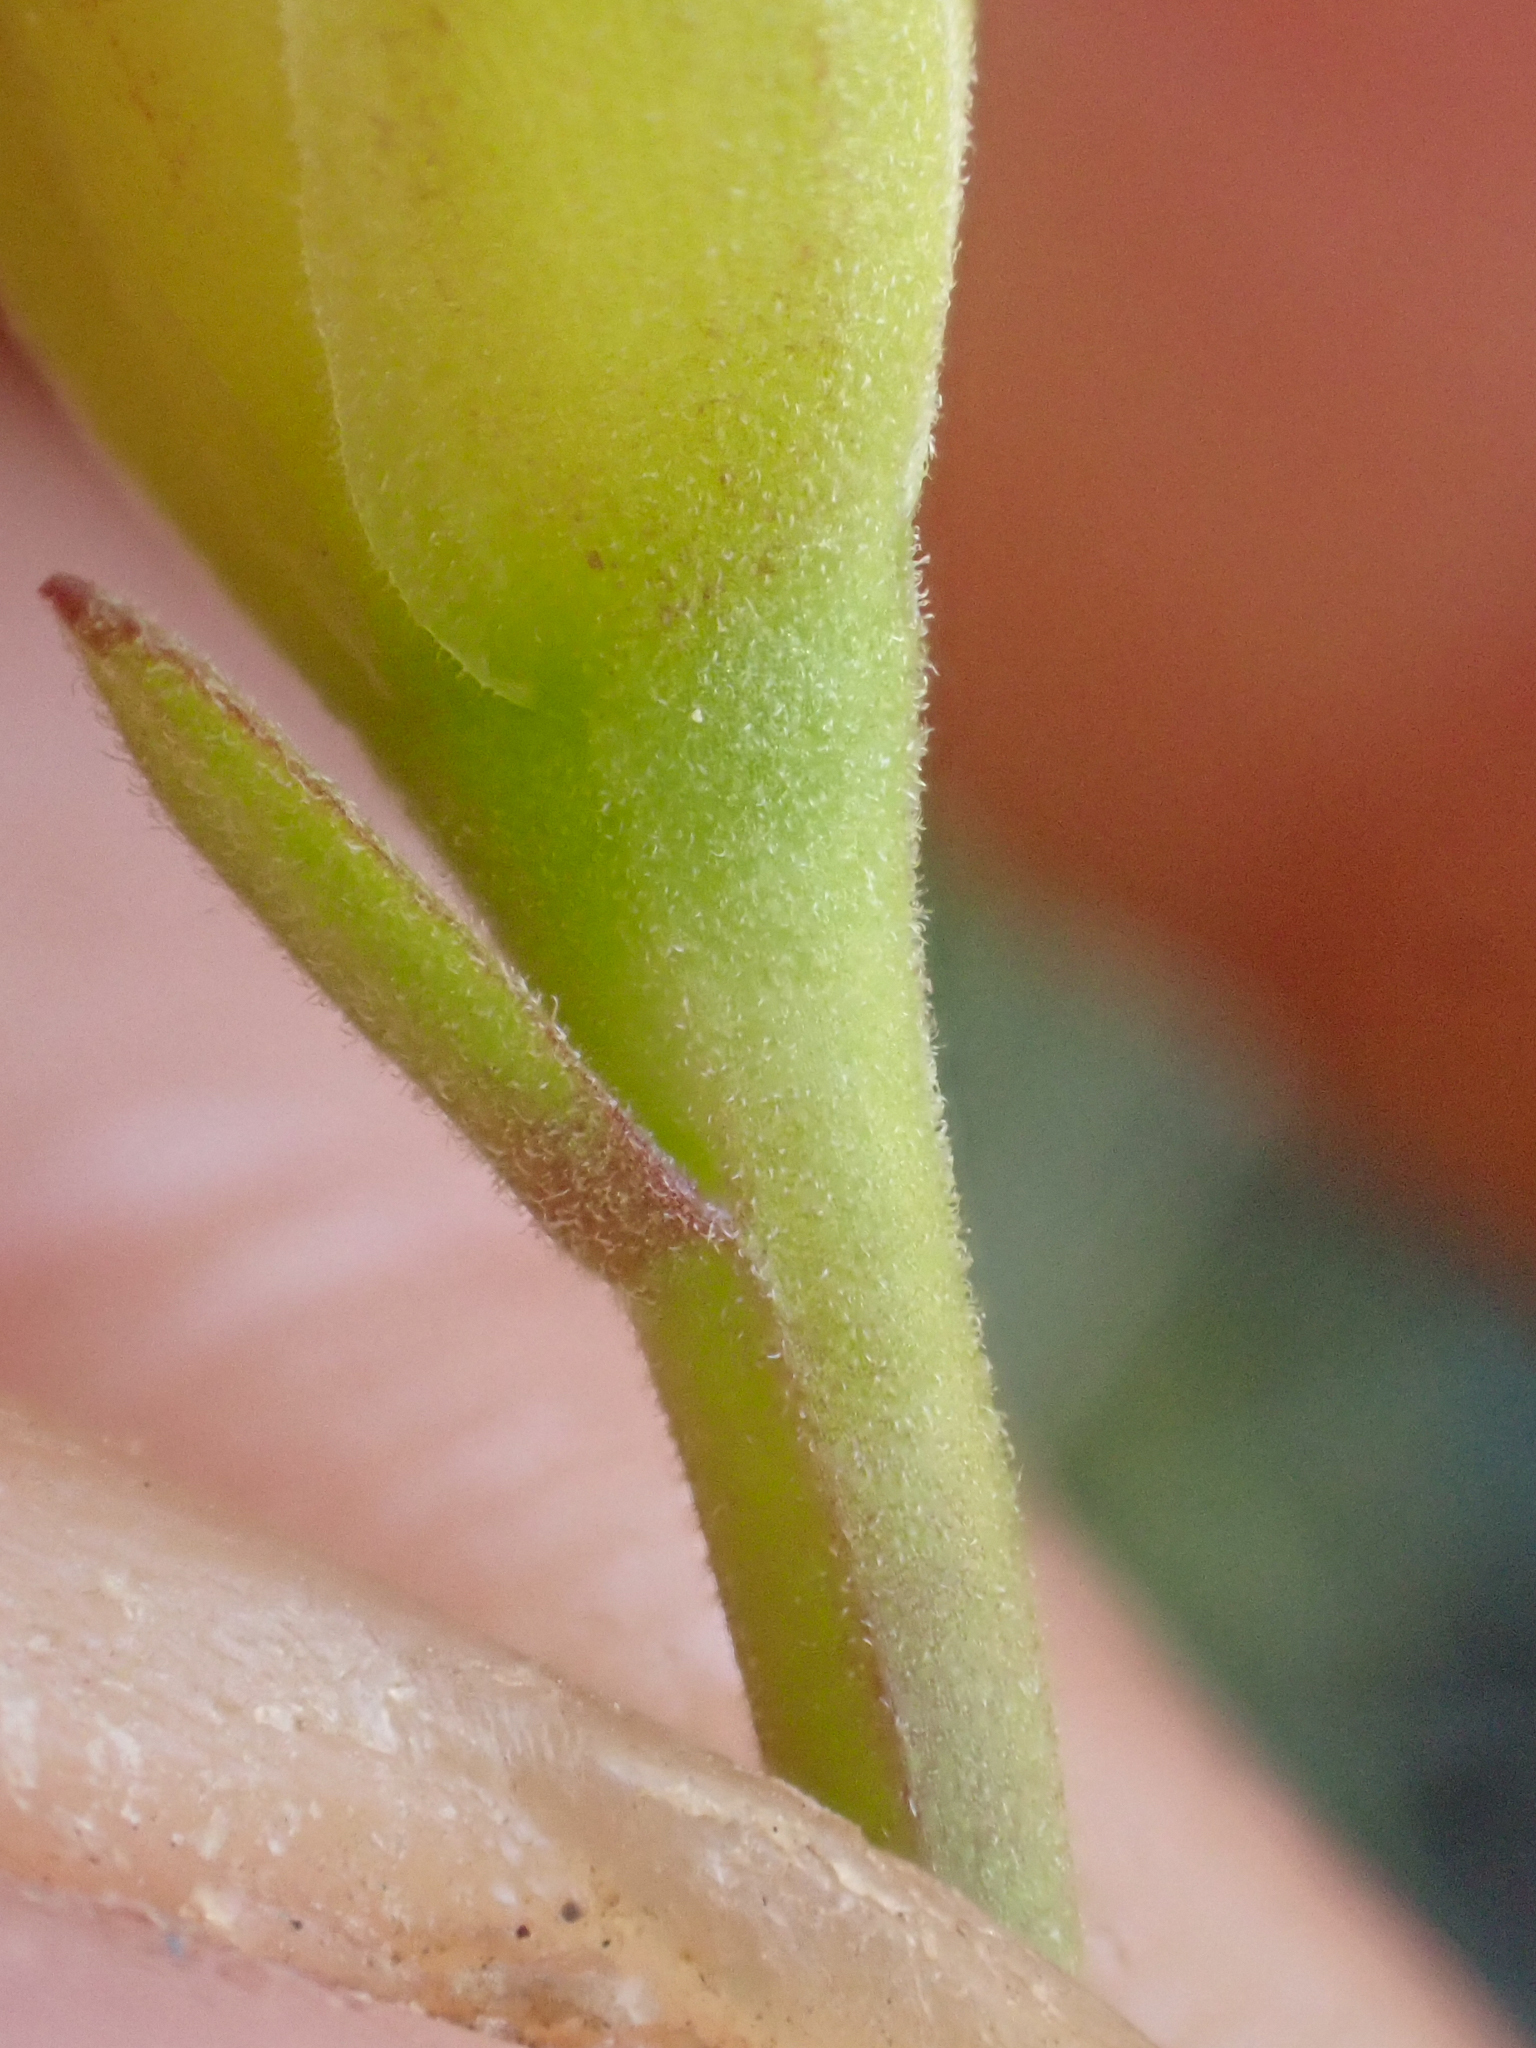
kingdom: Plantae
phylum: Tracheophyta
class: Magnoliopsida
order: Solanales
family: Convolvulaceae
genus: Calystegia
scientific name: Calystegia occidentalis
